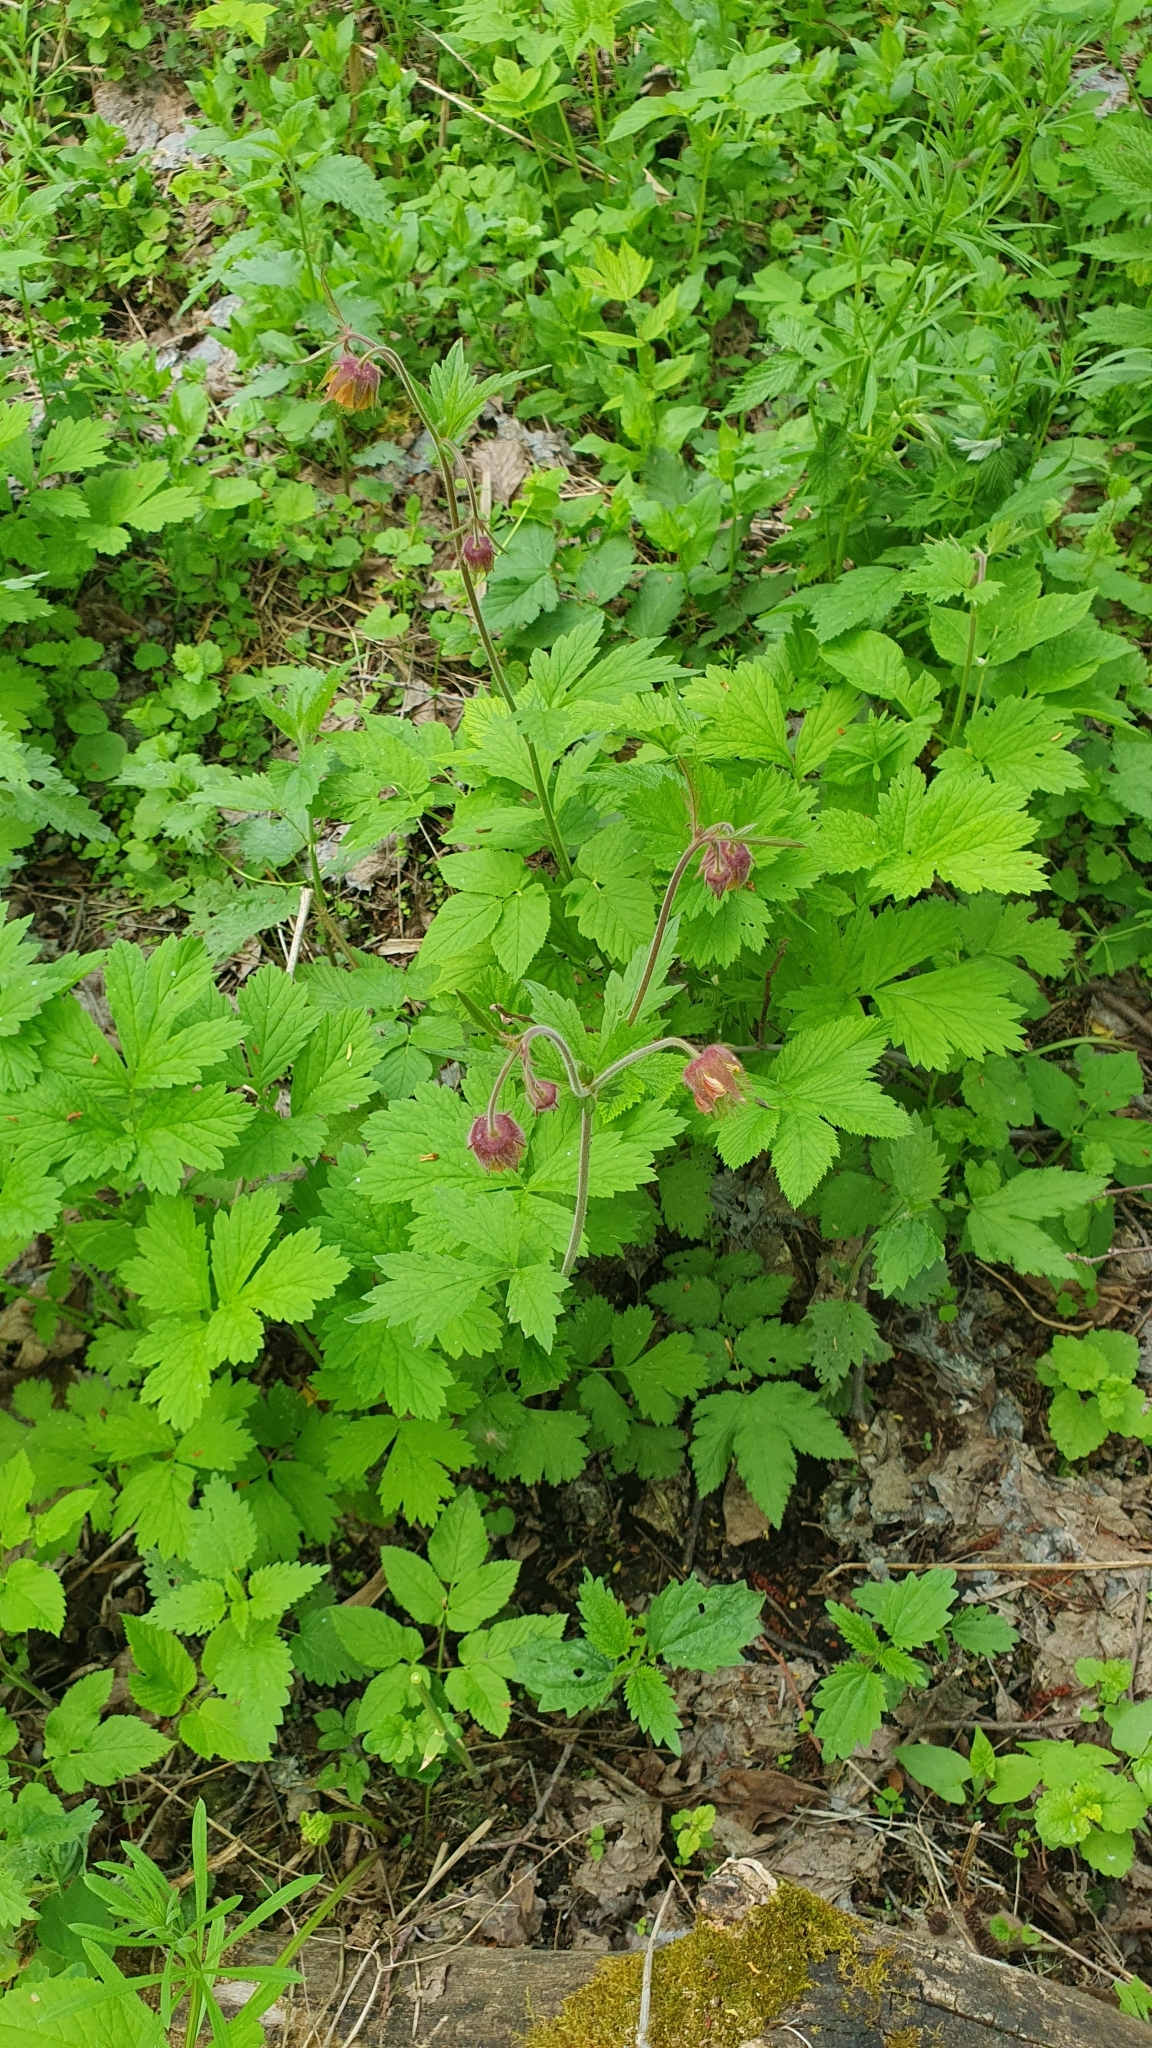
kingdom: Plantae
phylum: Tracheophyta
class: Magnoliopsida
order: Rosales
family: Rosaceae
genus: Geum
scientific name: Geum rivale
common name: Water avens
